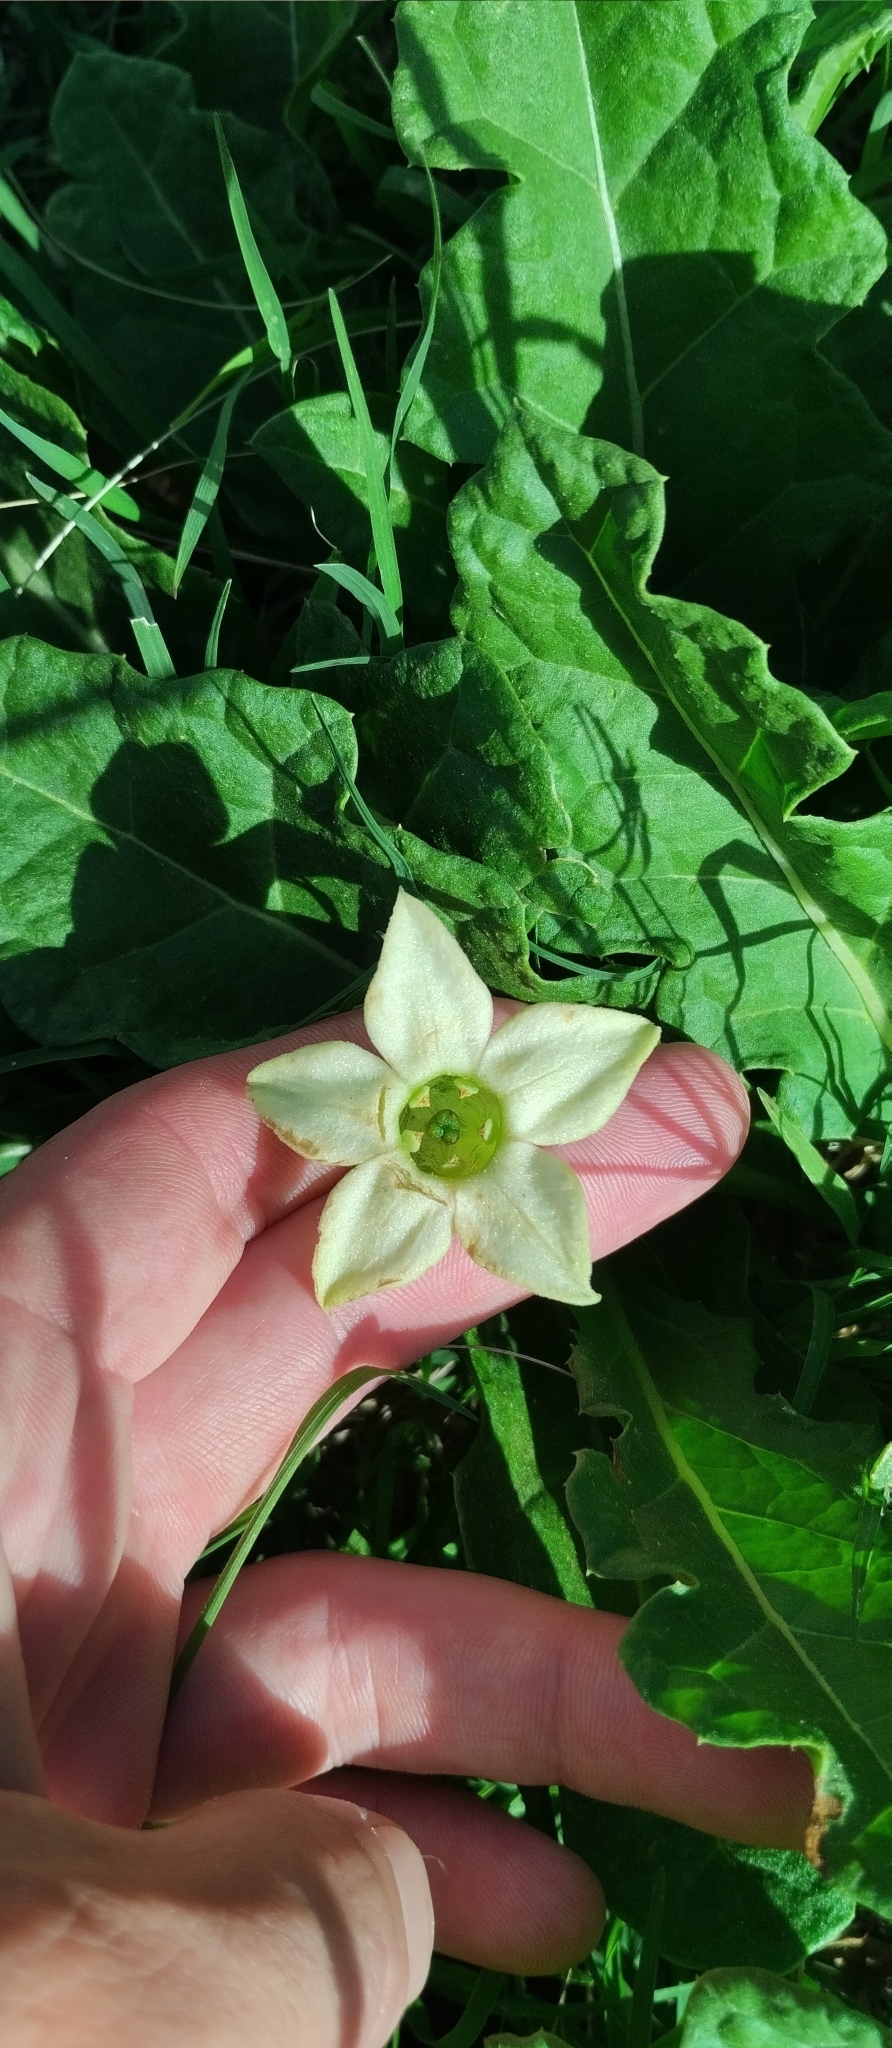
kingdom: Plantae
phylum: Tracheophyta
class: Magnoliopsida
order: Solanales
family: Solanaceae
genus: Jaborosa
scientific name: Jaborosa runcinata
